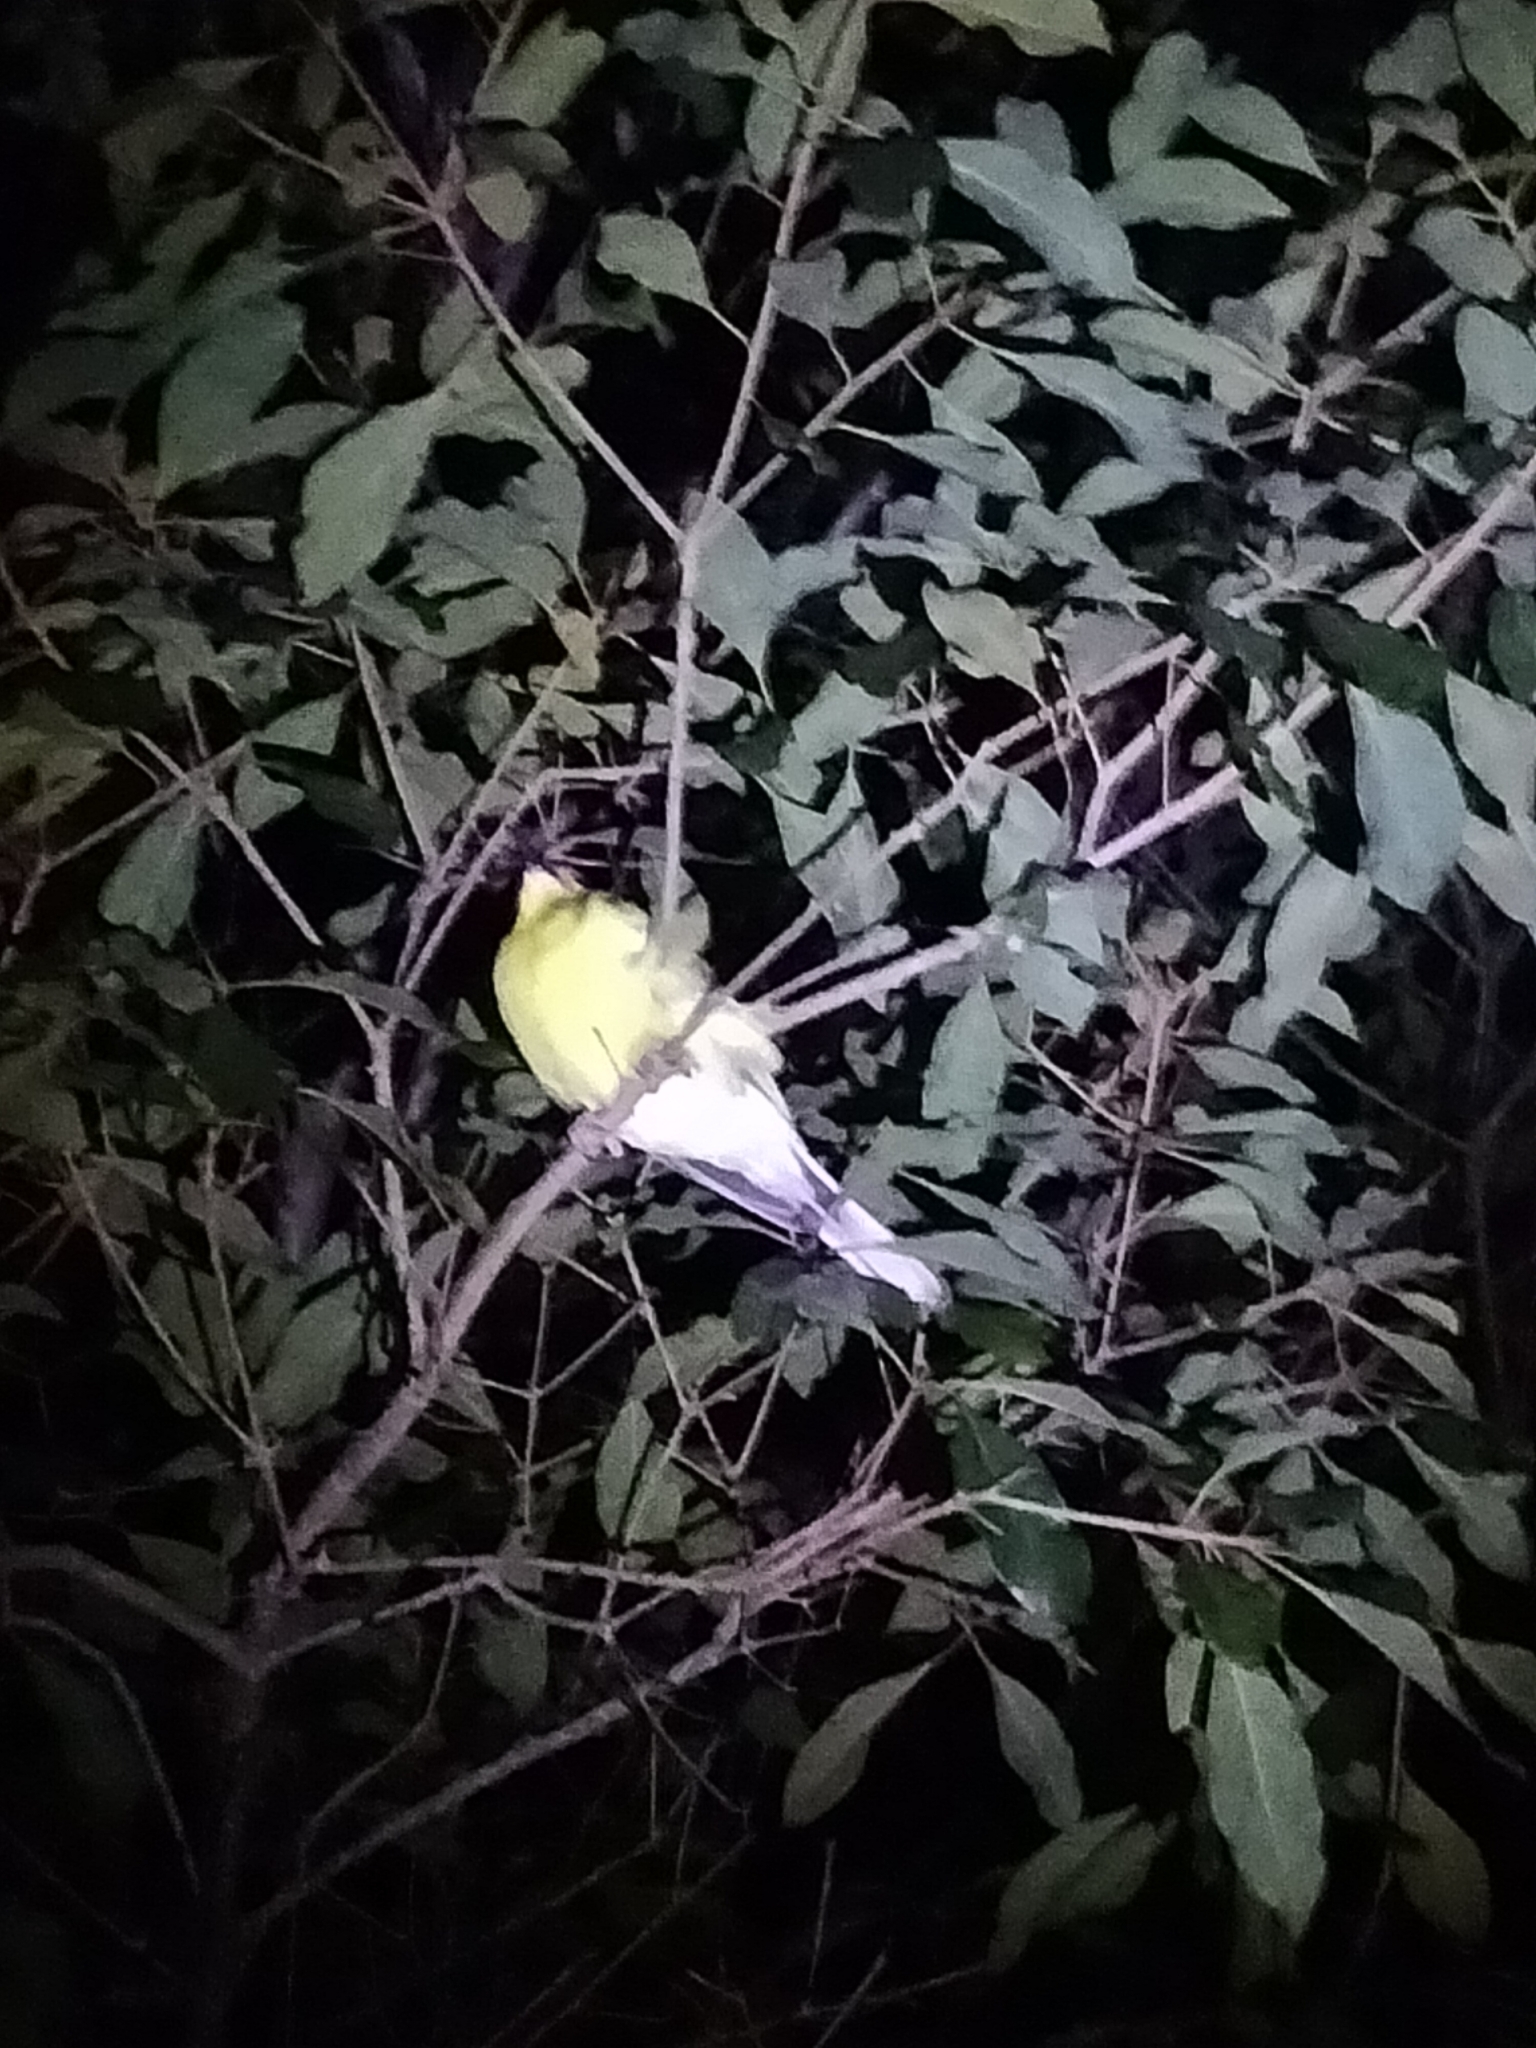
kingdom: Animalia
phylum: Chordata
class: Aves
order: Passeriformes
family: Oriolidae
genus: Sphecotheres
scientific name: Sphecotheres vieilloti
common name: Australasian figbird
